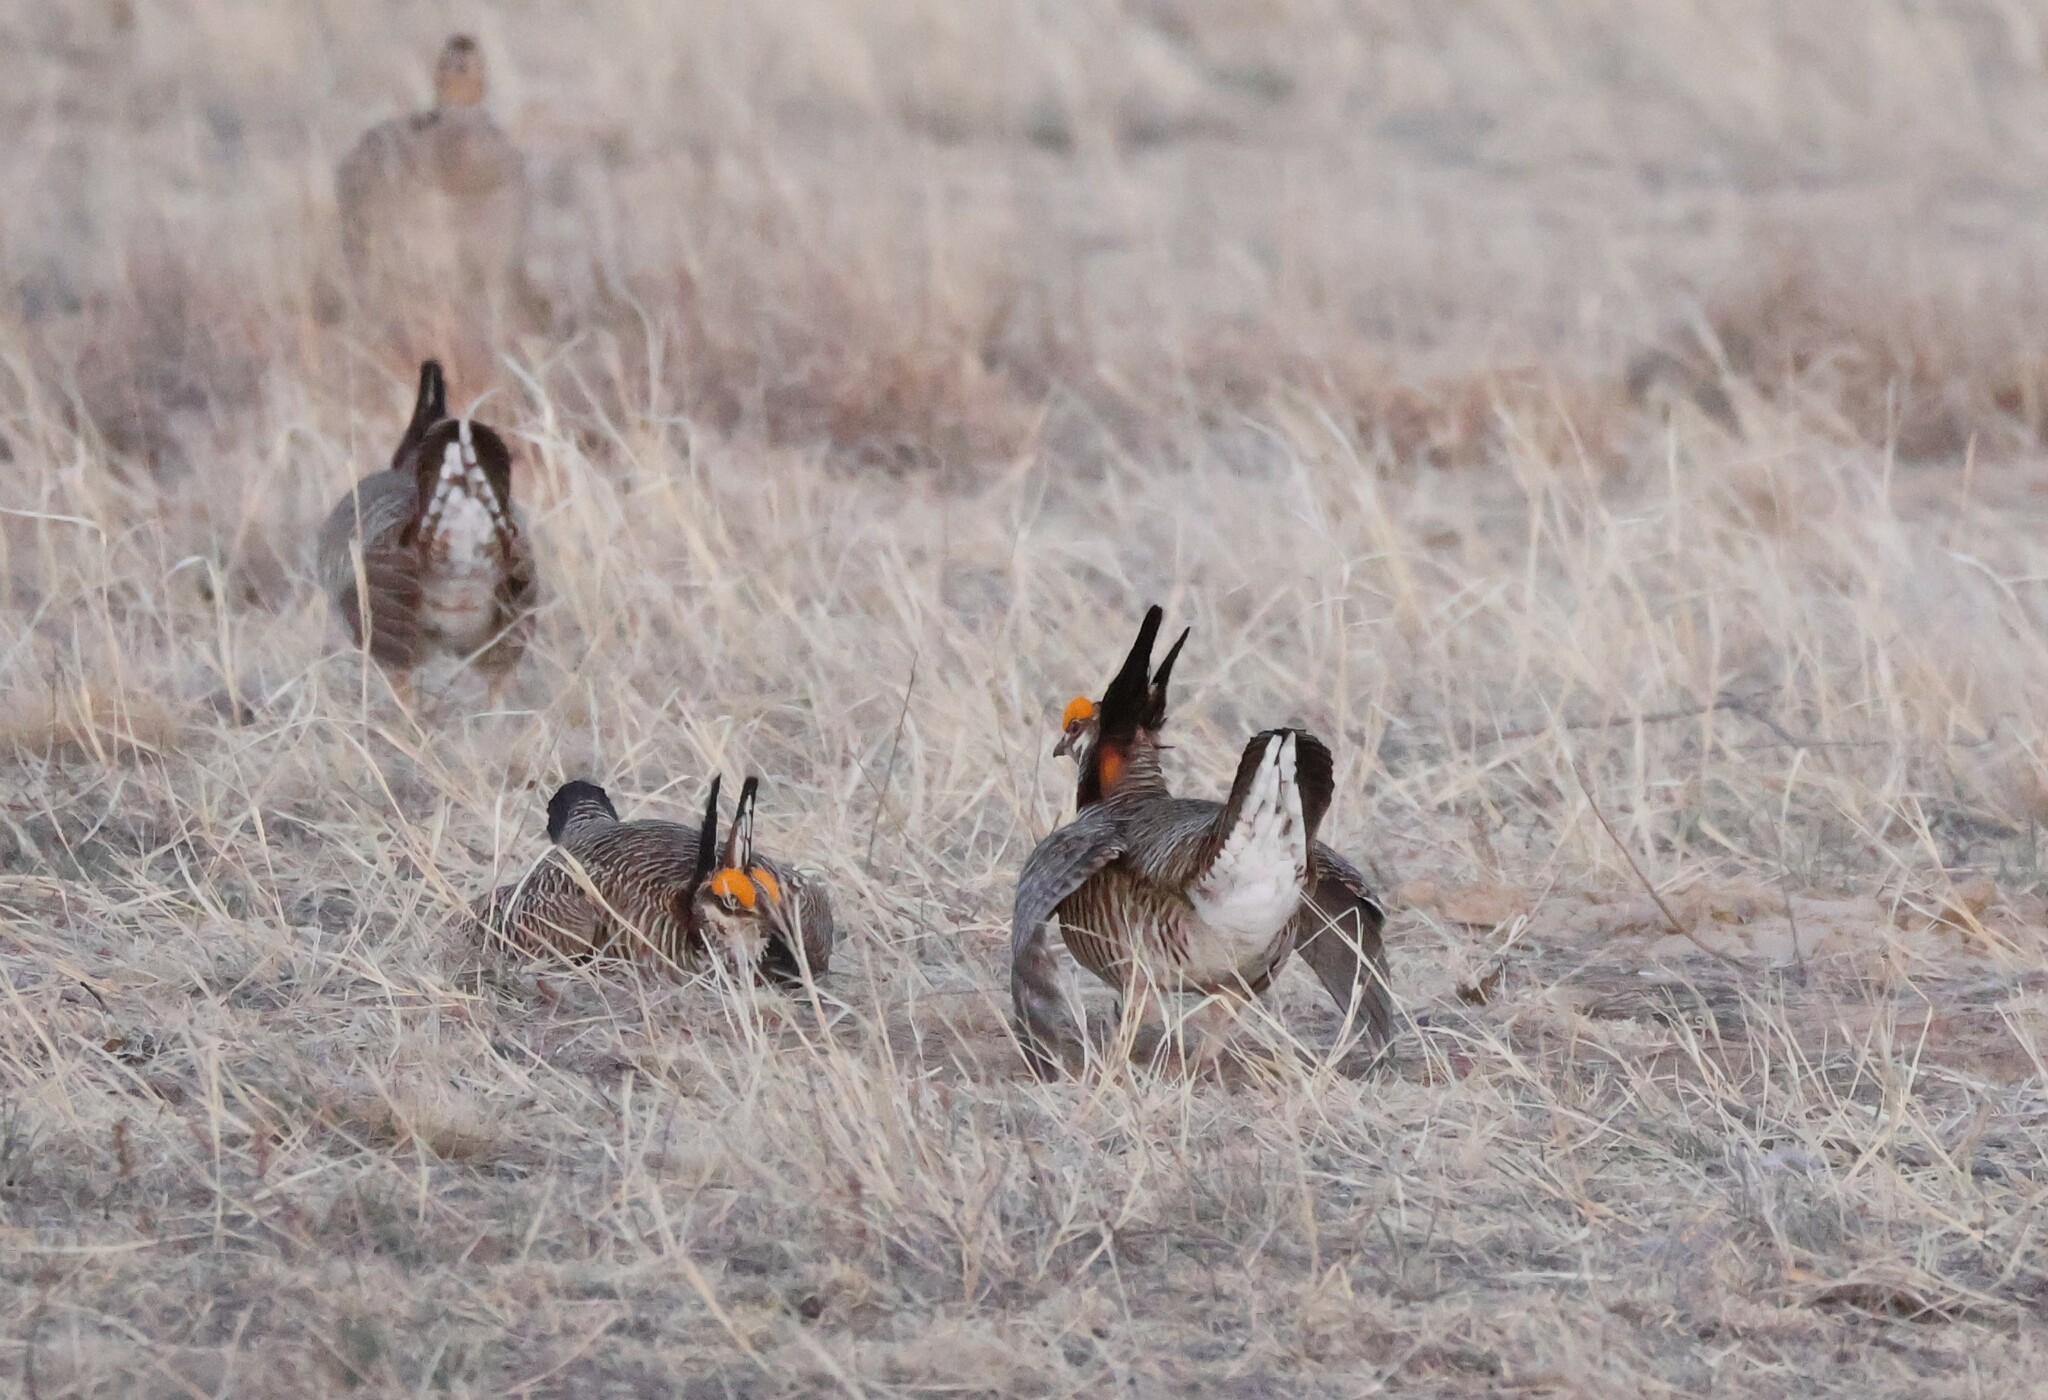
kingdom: Animalia
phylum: Chordata
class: Aves
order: Galliformes
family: Phasianidae
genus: Tympanuchus
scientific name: Tympanuchus pallidicinctus
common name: Lesser prairie chicken
